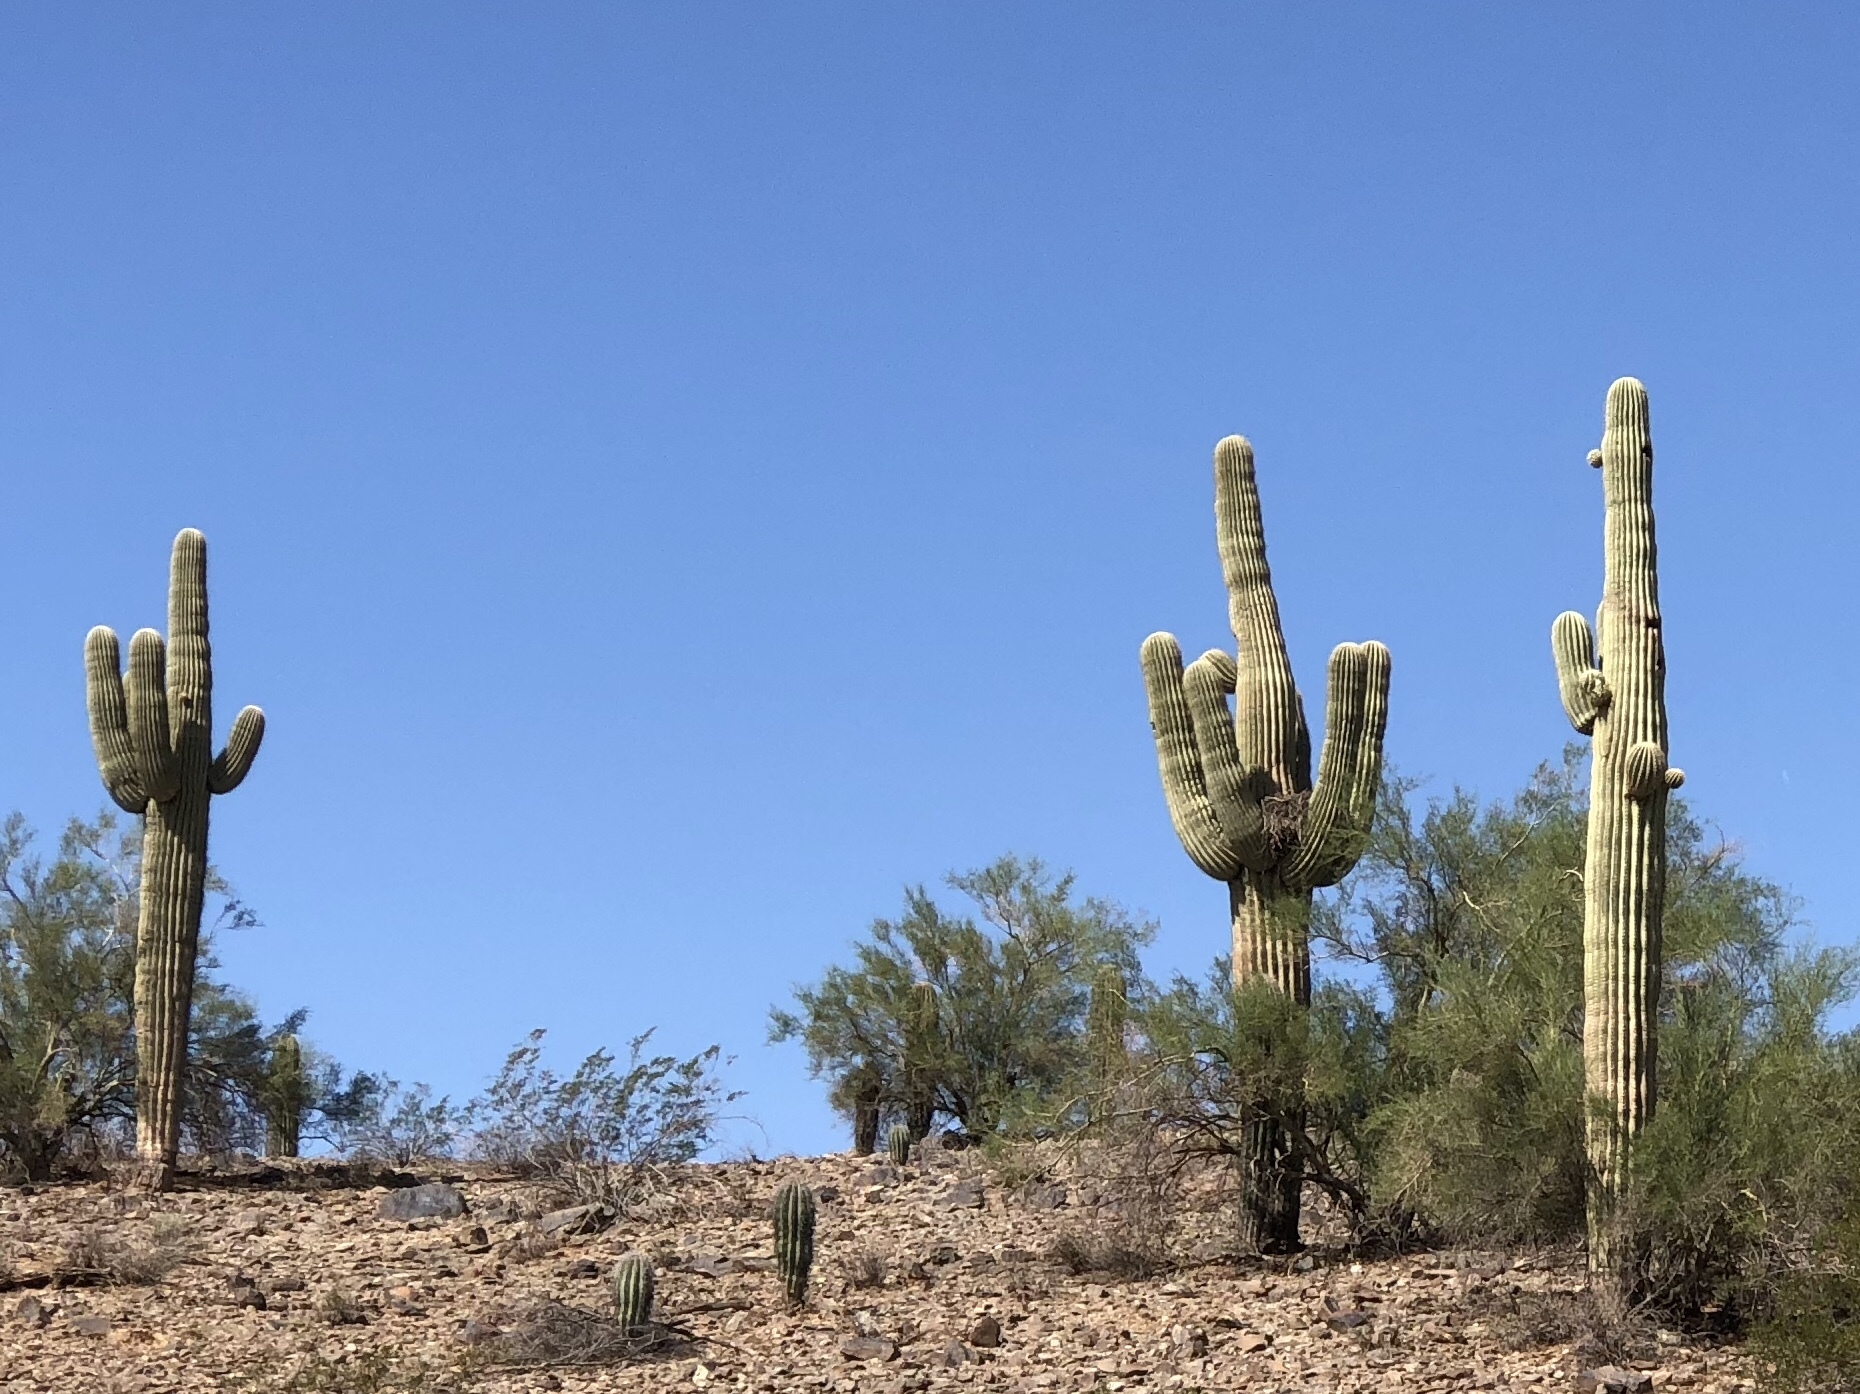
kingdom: Plantae
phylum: Tracheophyta
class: Magnoliopsida
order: Caryophyllales
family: Cactaceae
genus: Carnegiea
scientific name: Carnegiea gigantea
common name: Saguaro
